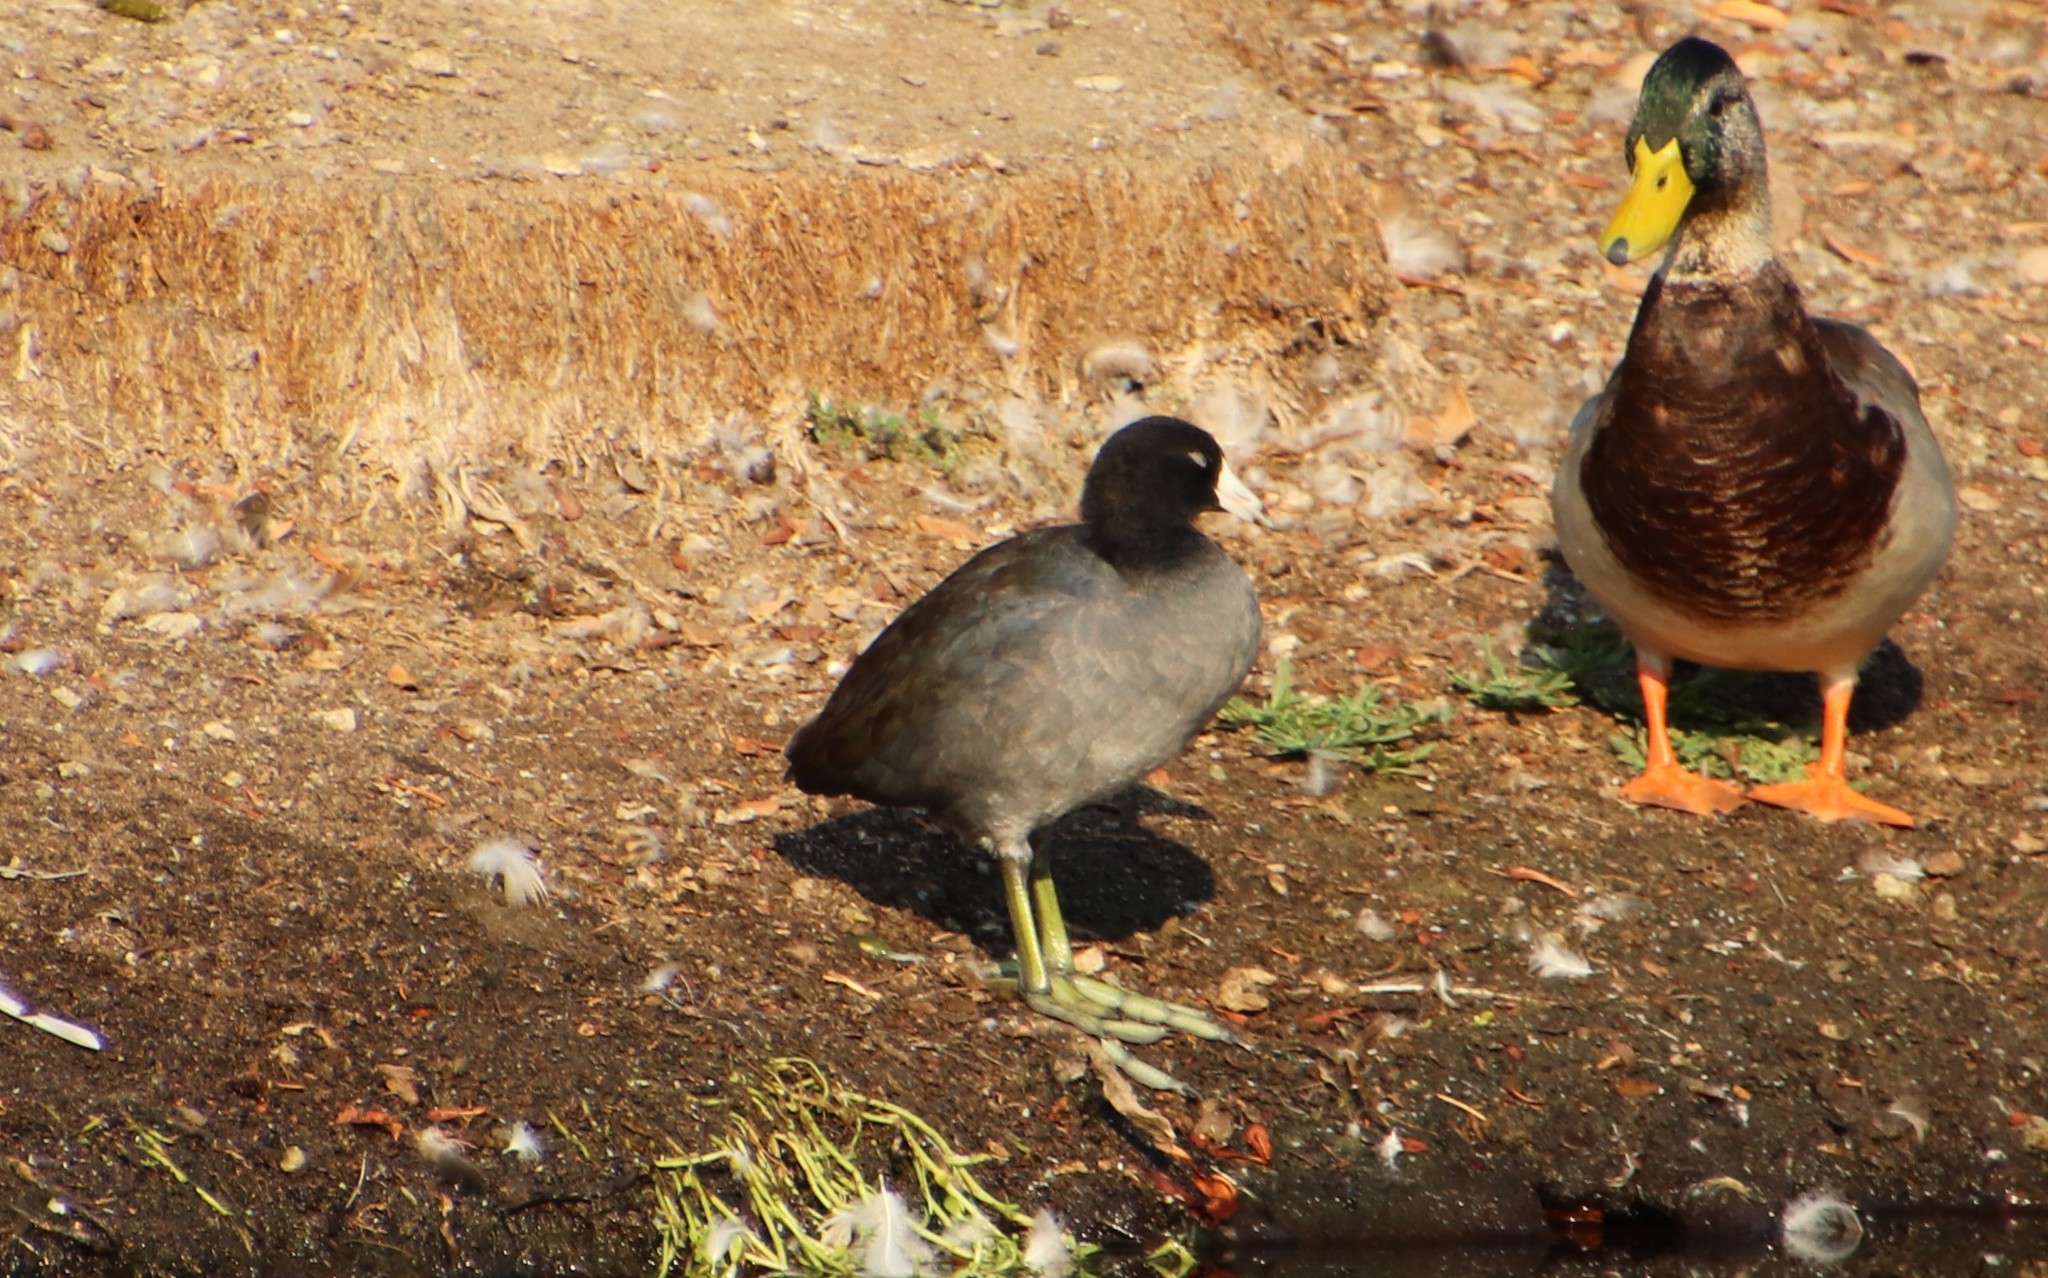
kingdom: Animalia
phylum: Chordata
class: Aves
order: Gruiformes
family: Rallidae
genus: Fulica
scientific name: Fulica americana
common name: American coot
